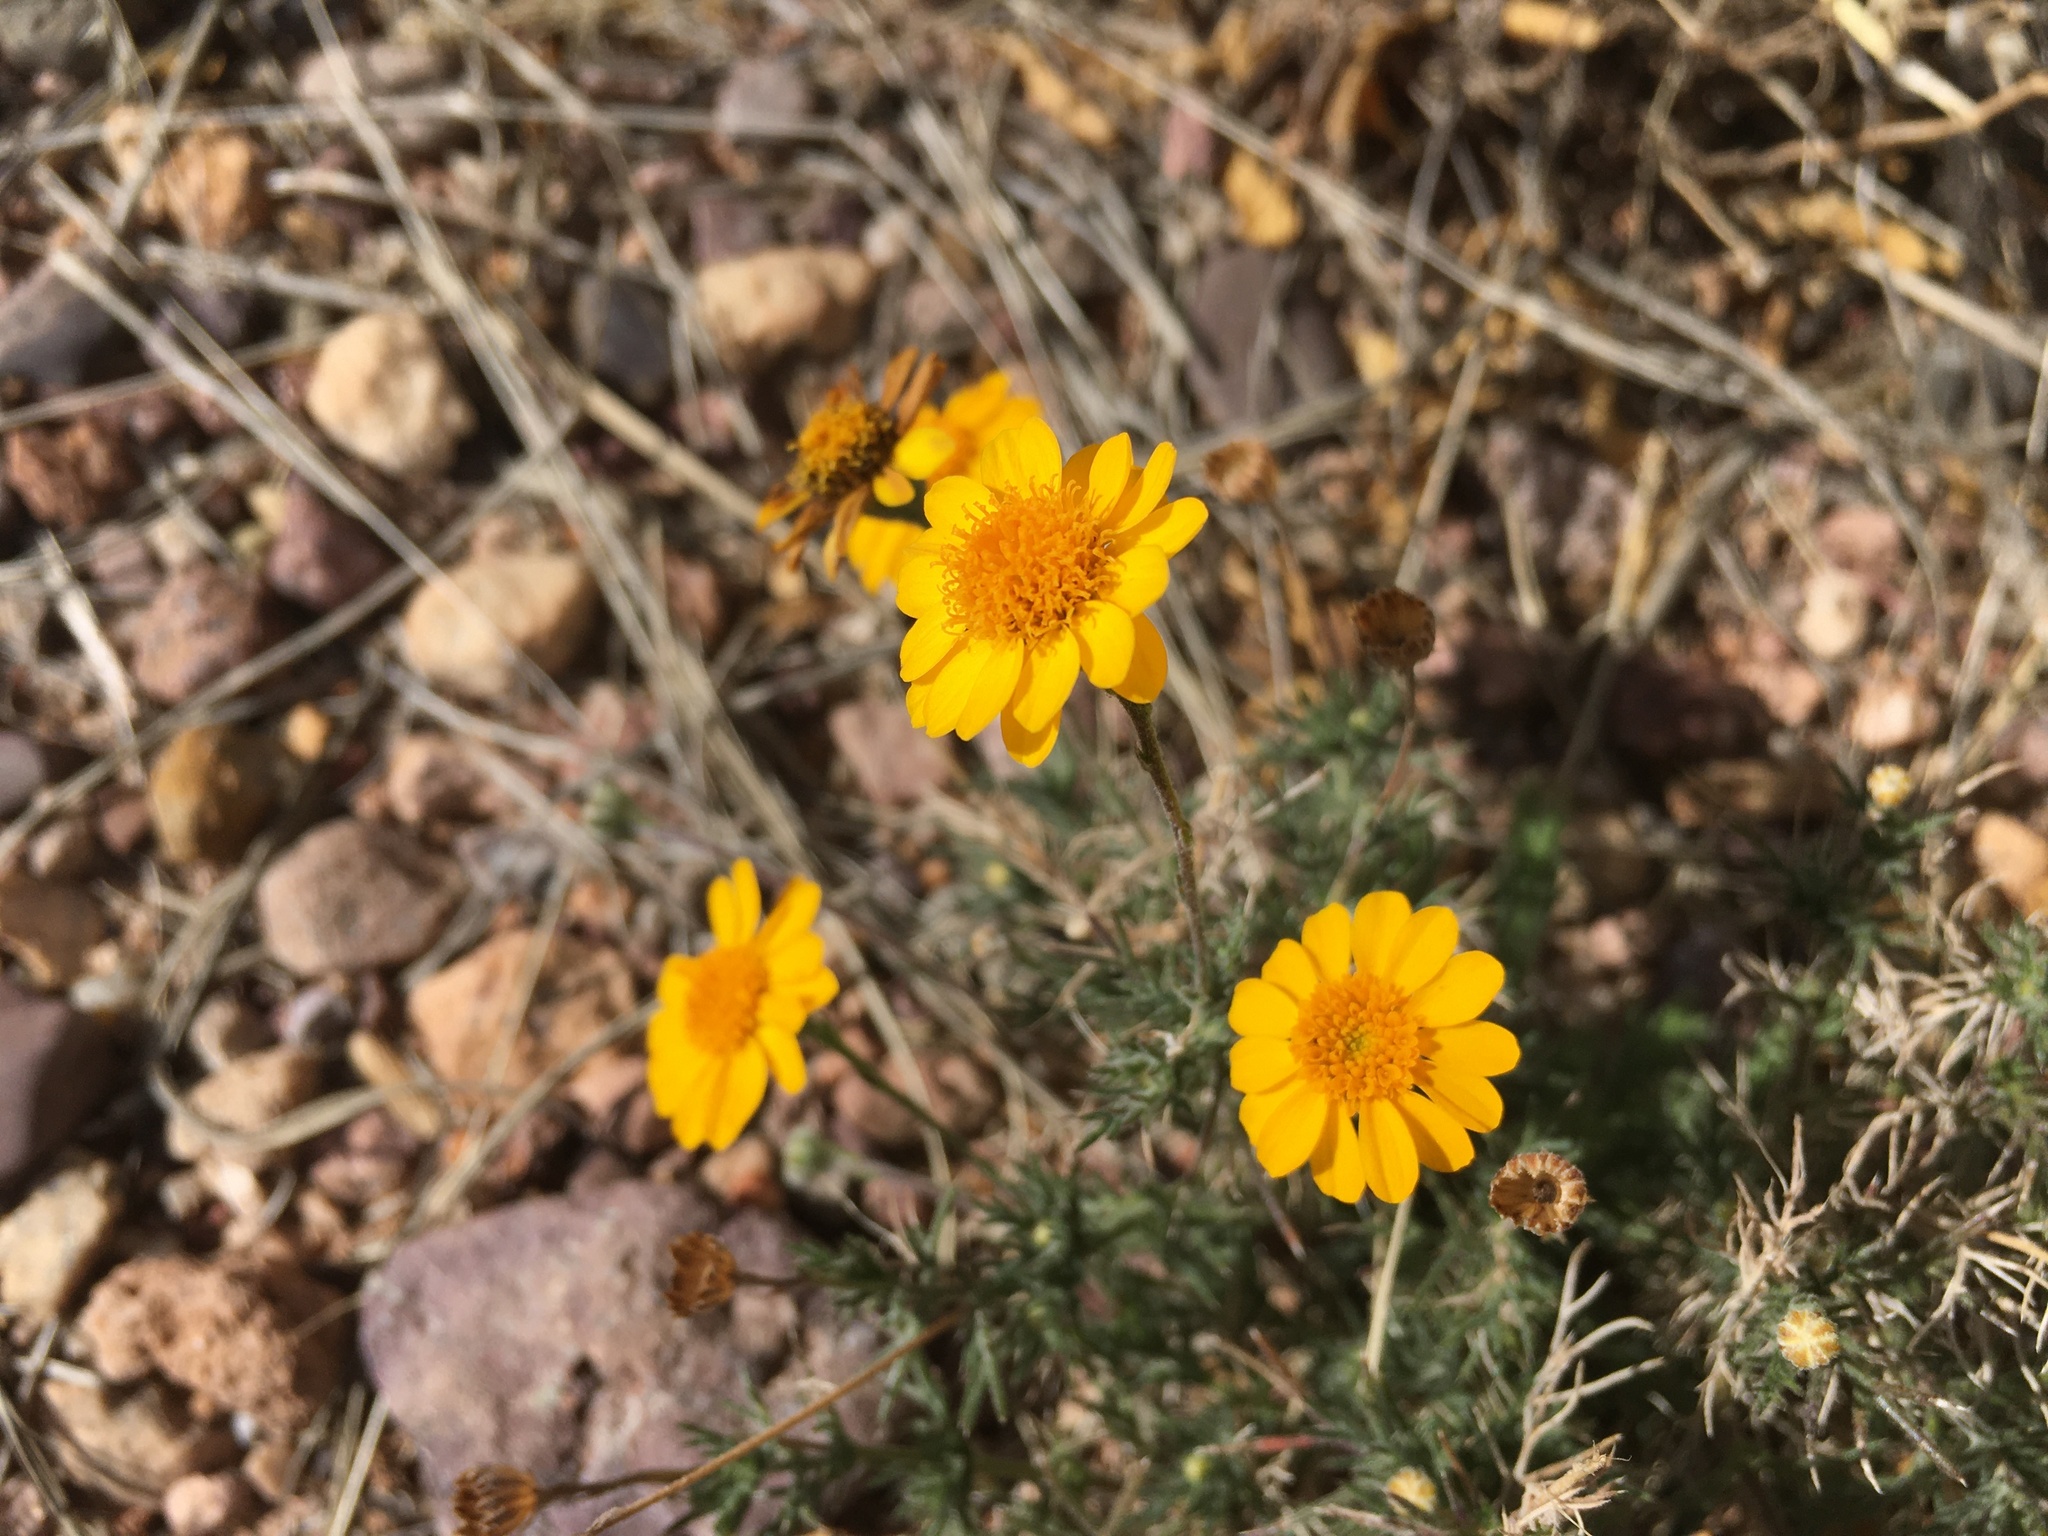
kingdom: Plantae
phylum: Tracheophyta
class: Magnoliopsida
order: Asterales
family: Asteraceae
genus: Thymophylla
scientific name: Thymophylla pentachaeta
